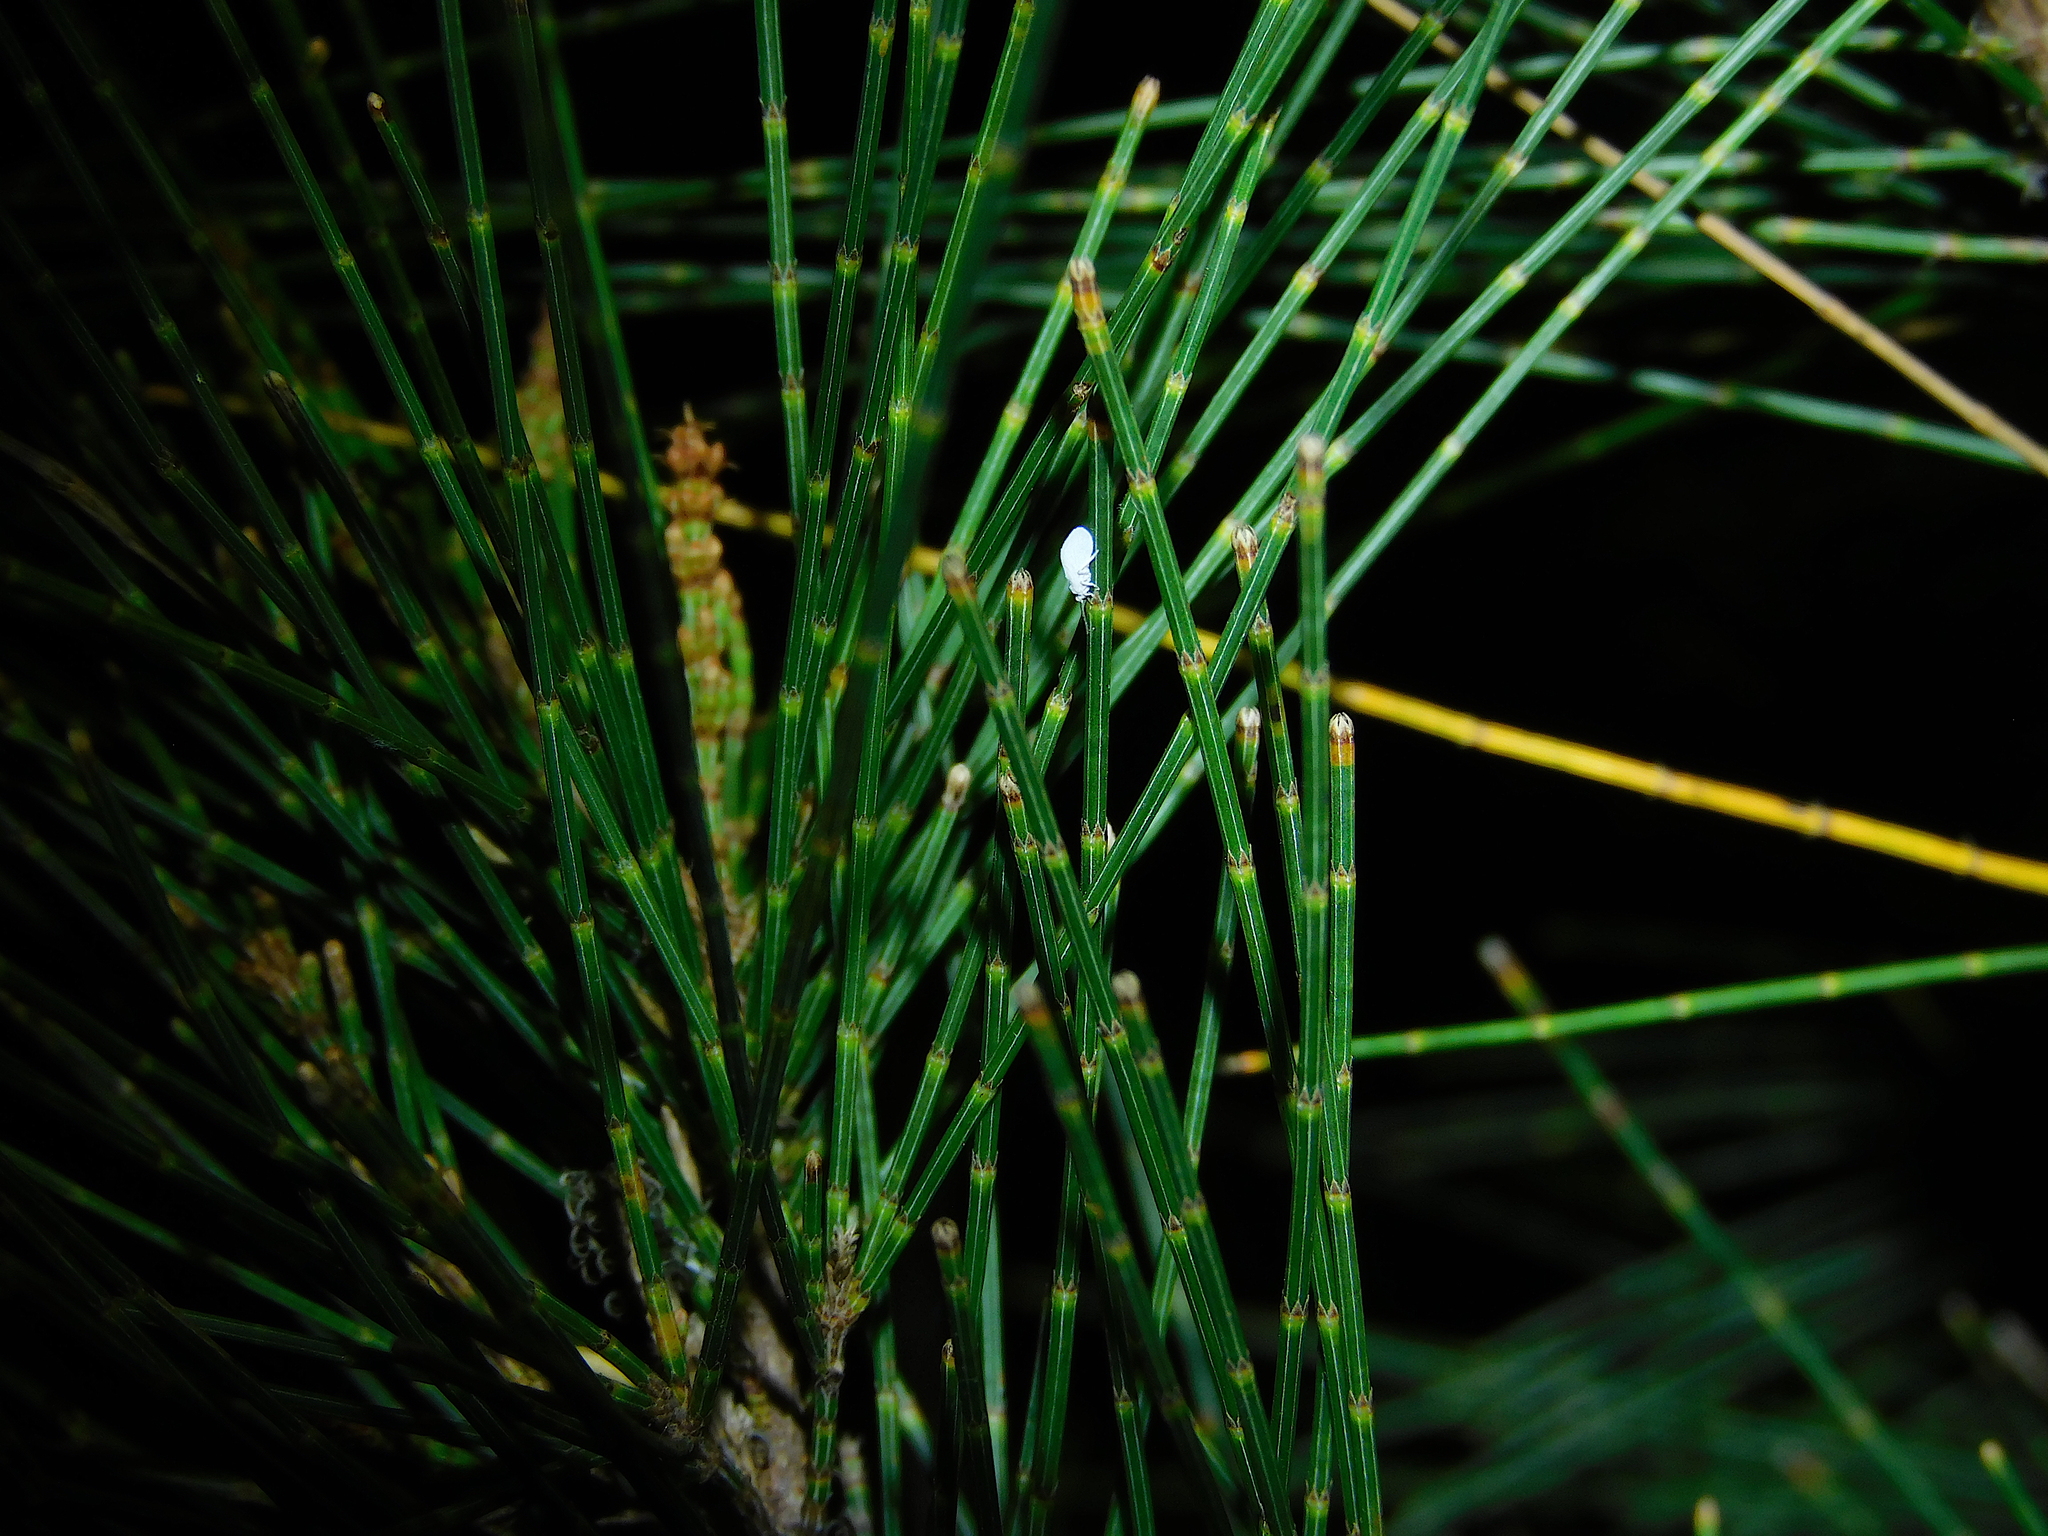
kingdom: Animalia
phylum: Arthropoda
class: Insecta
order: Neuroptera
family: Coniopterygidae
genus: Cryptoscenea
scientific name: Cryptoscenea australiensis
